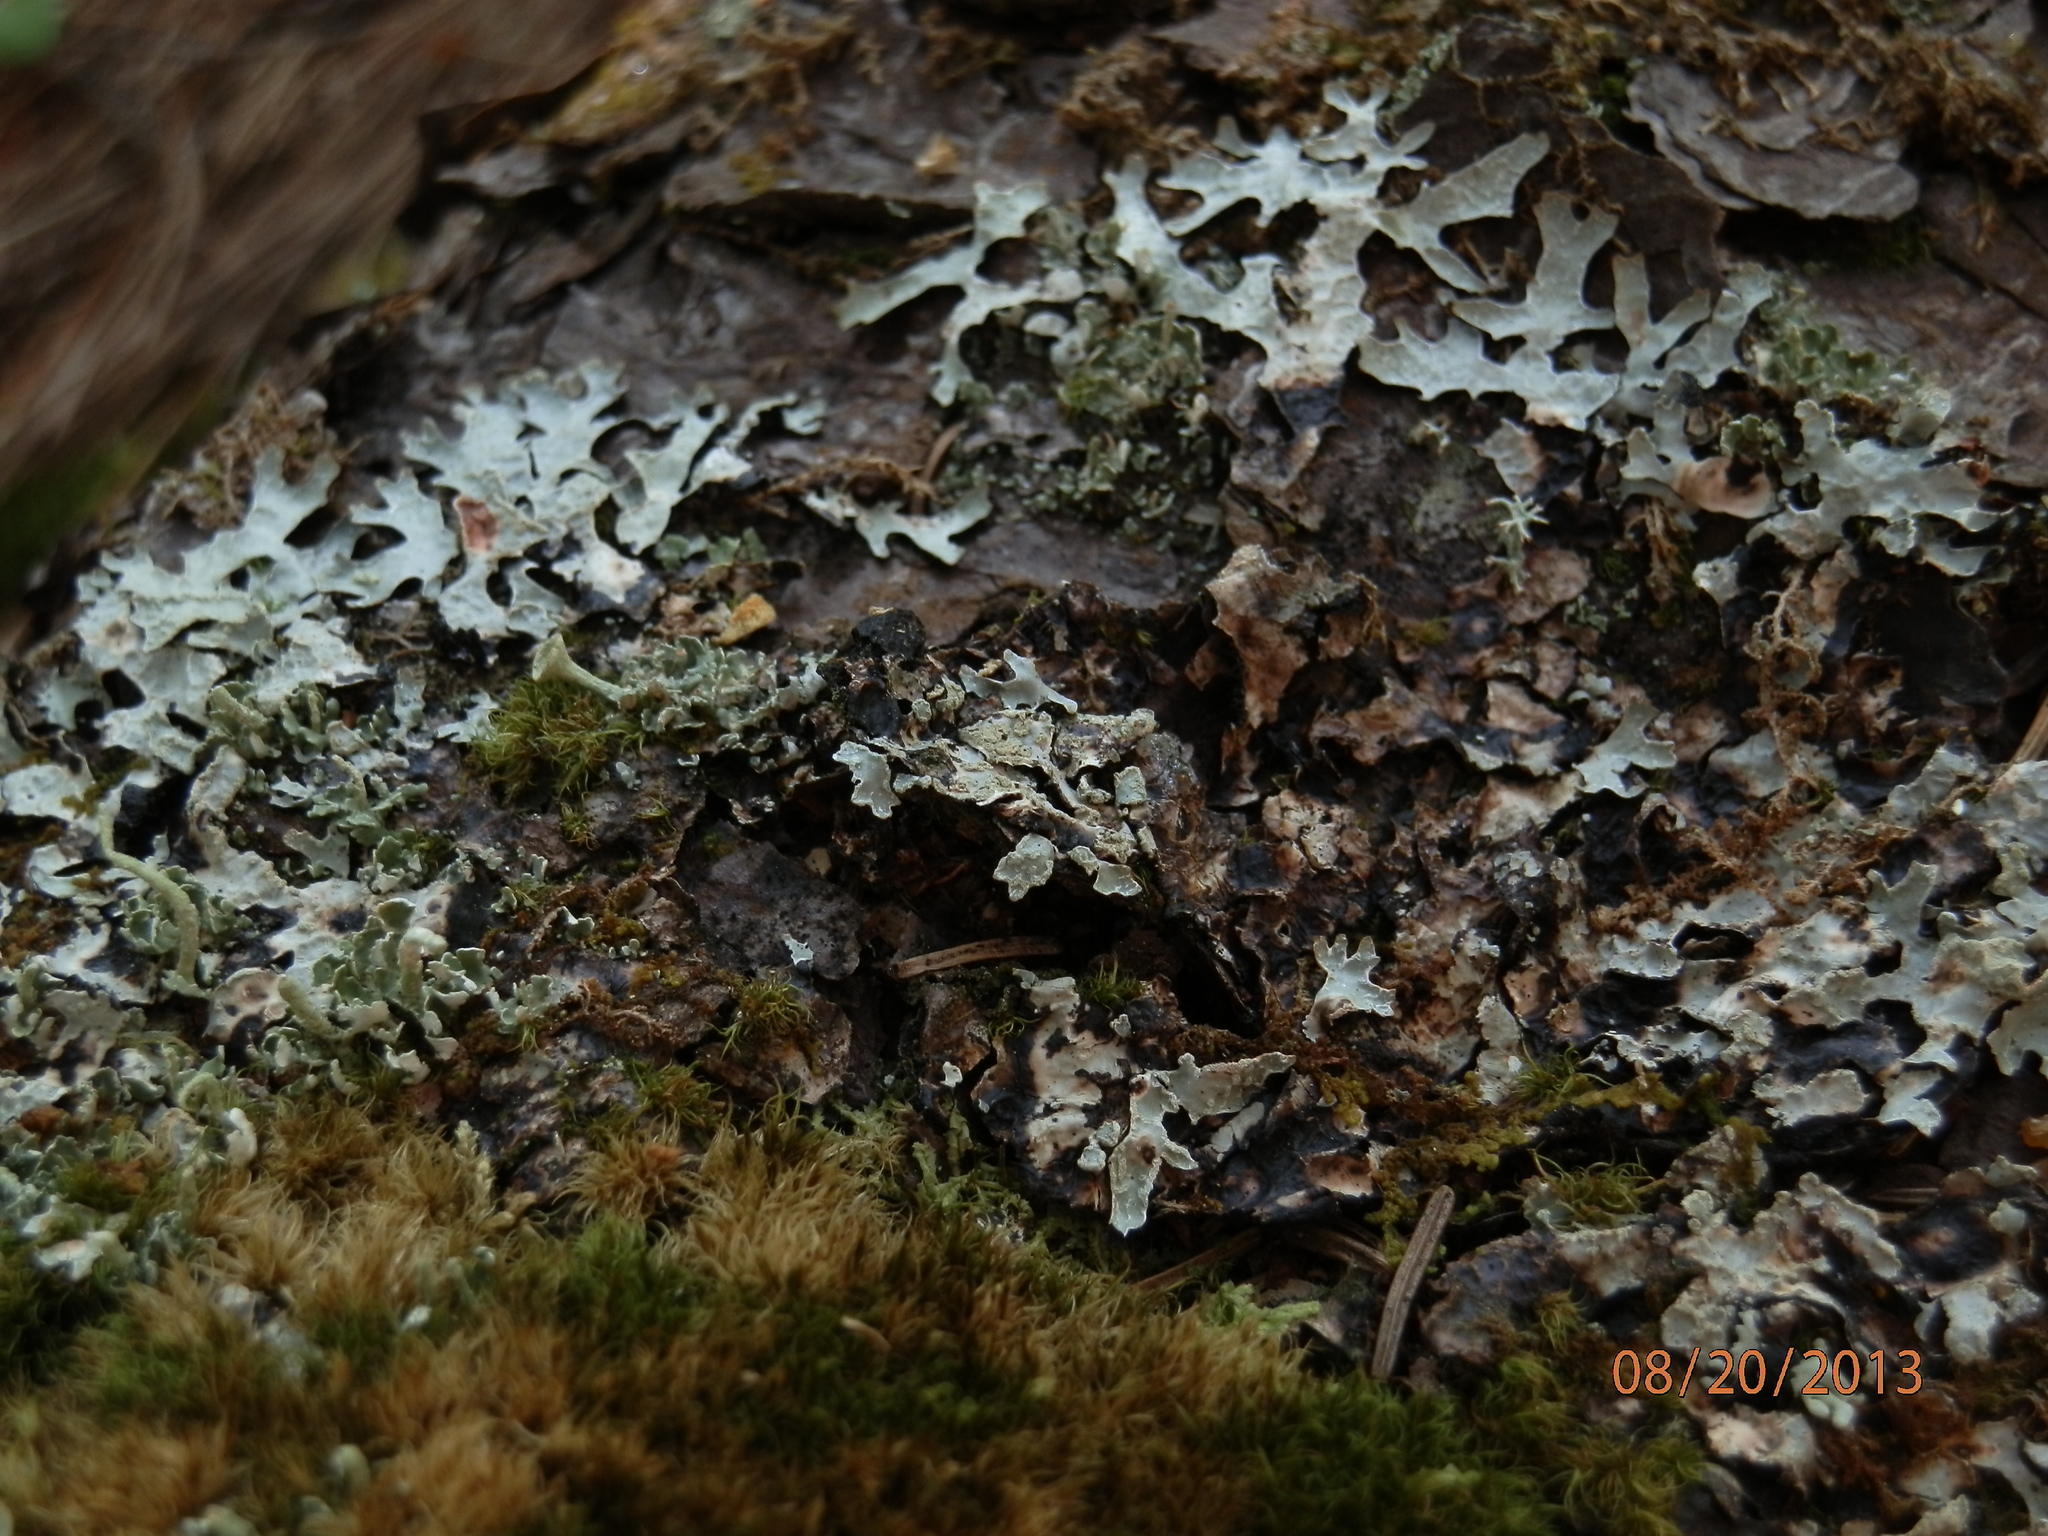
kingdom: Fungi
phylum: Ascomycota
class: Lecanoromycetes
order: Lecanorales
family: Parmeliaceae
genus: Parmelia
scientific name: Parmelia sulcata
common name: Netted shield lichen
